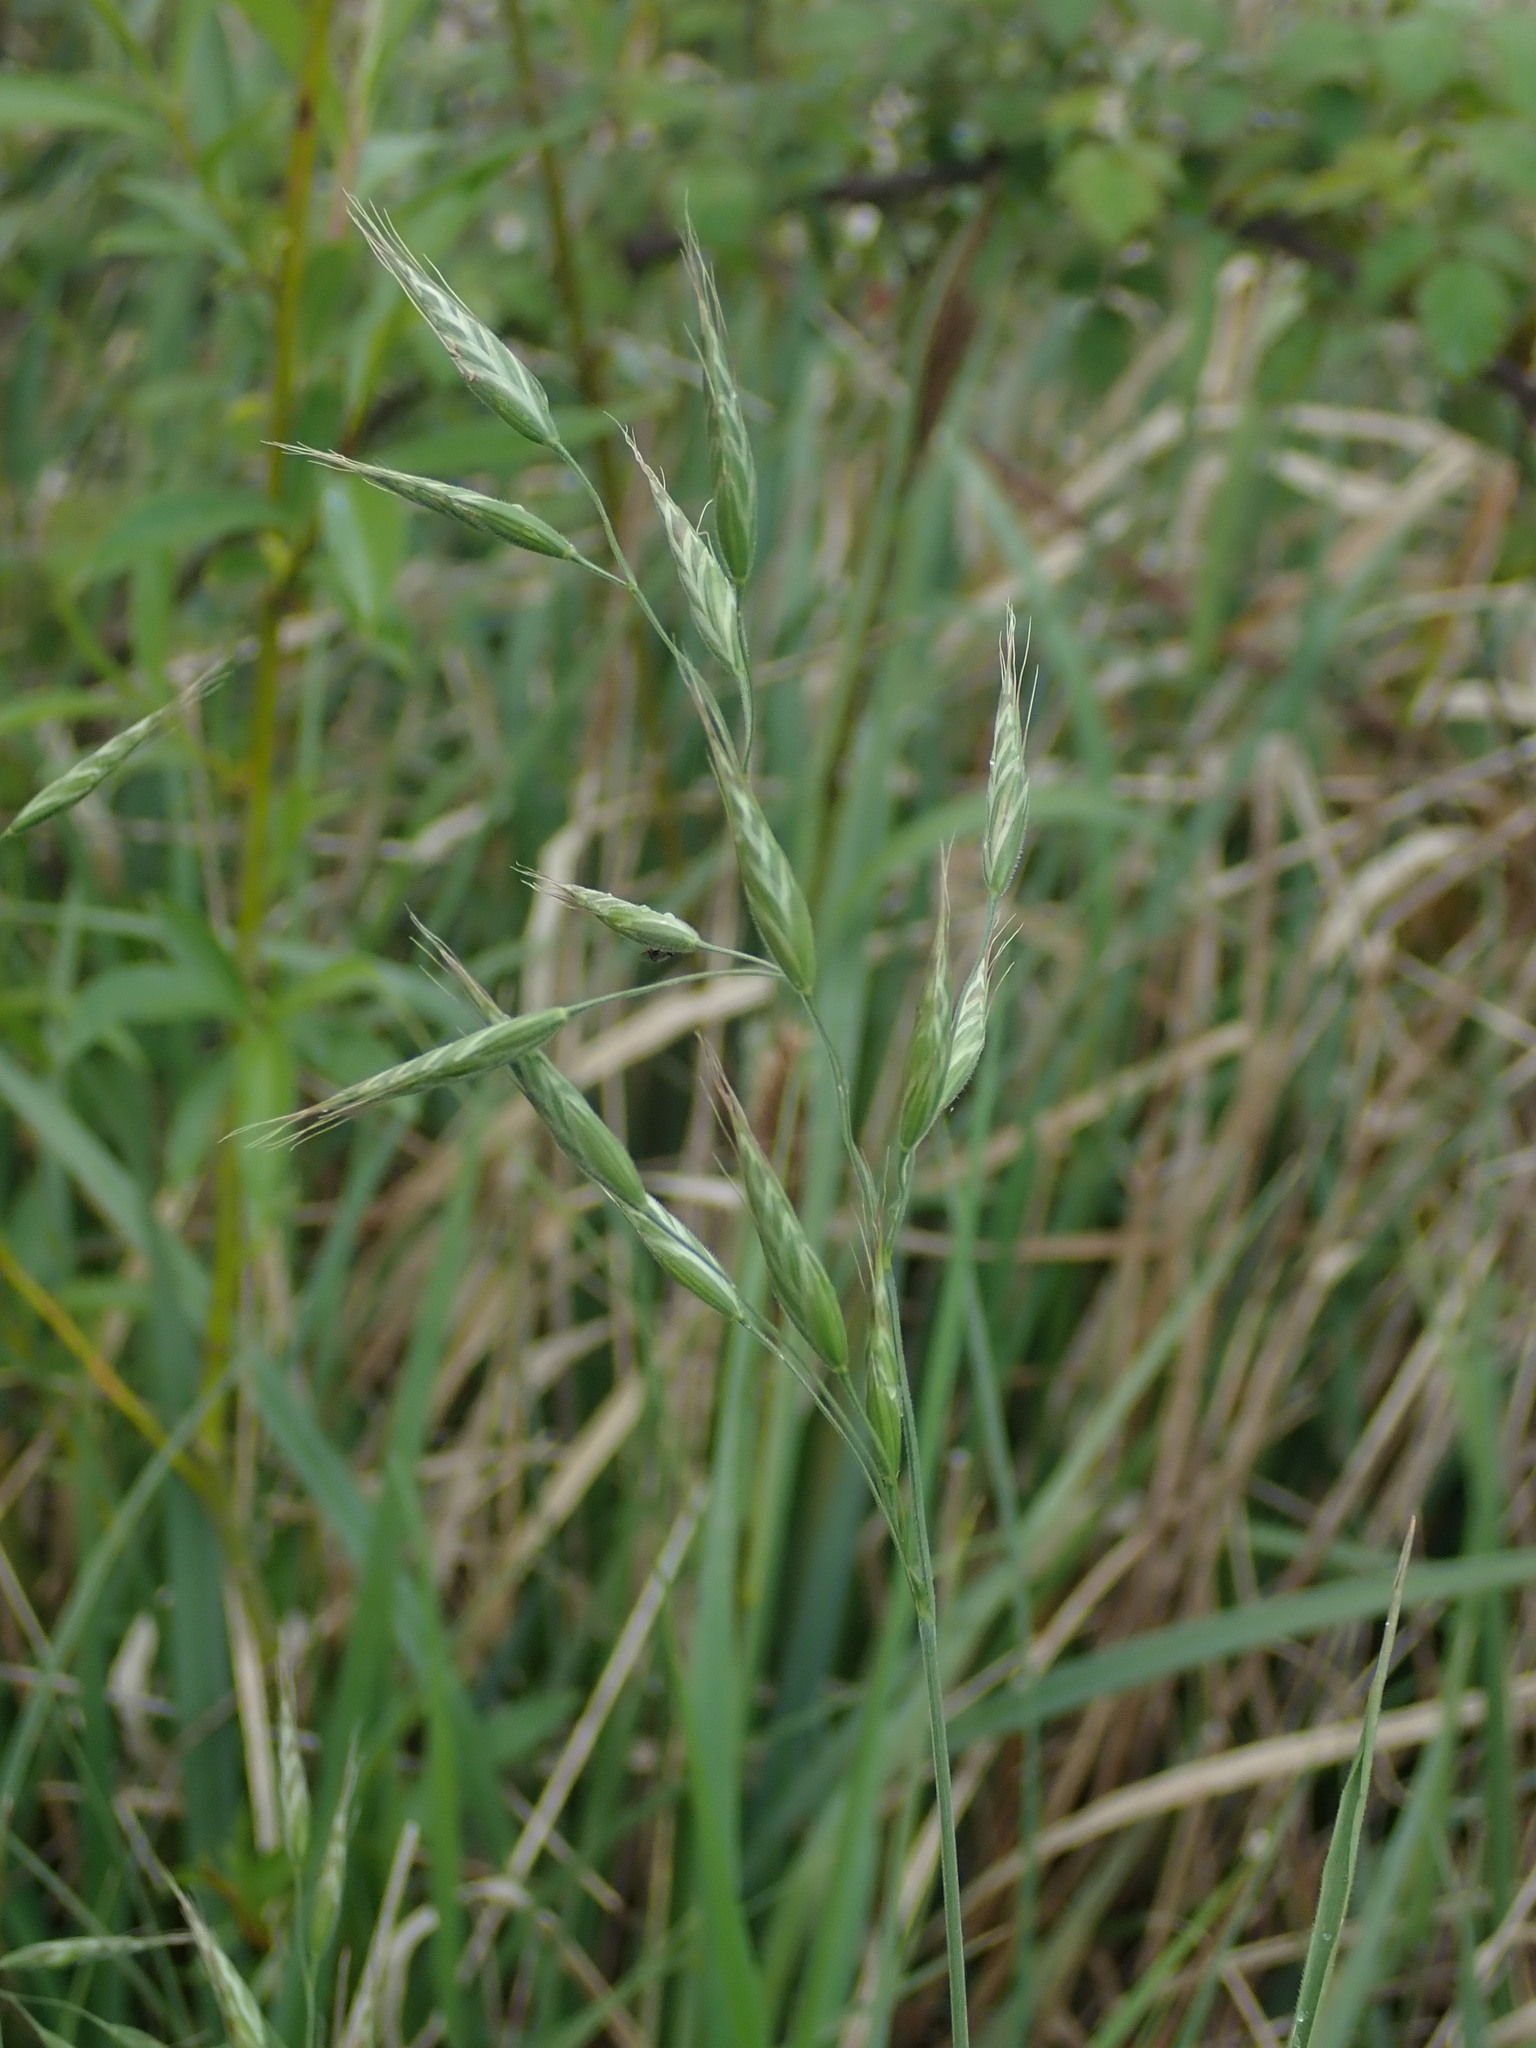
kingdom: Plantae
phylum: Tracheophyta
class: Liliopsida
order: Poales
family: Poaceae
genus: Bromus
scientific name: Bromus hordeaceus
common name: Soft brome
